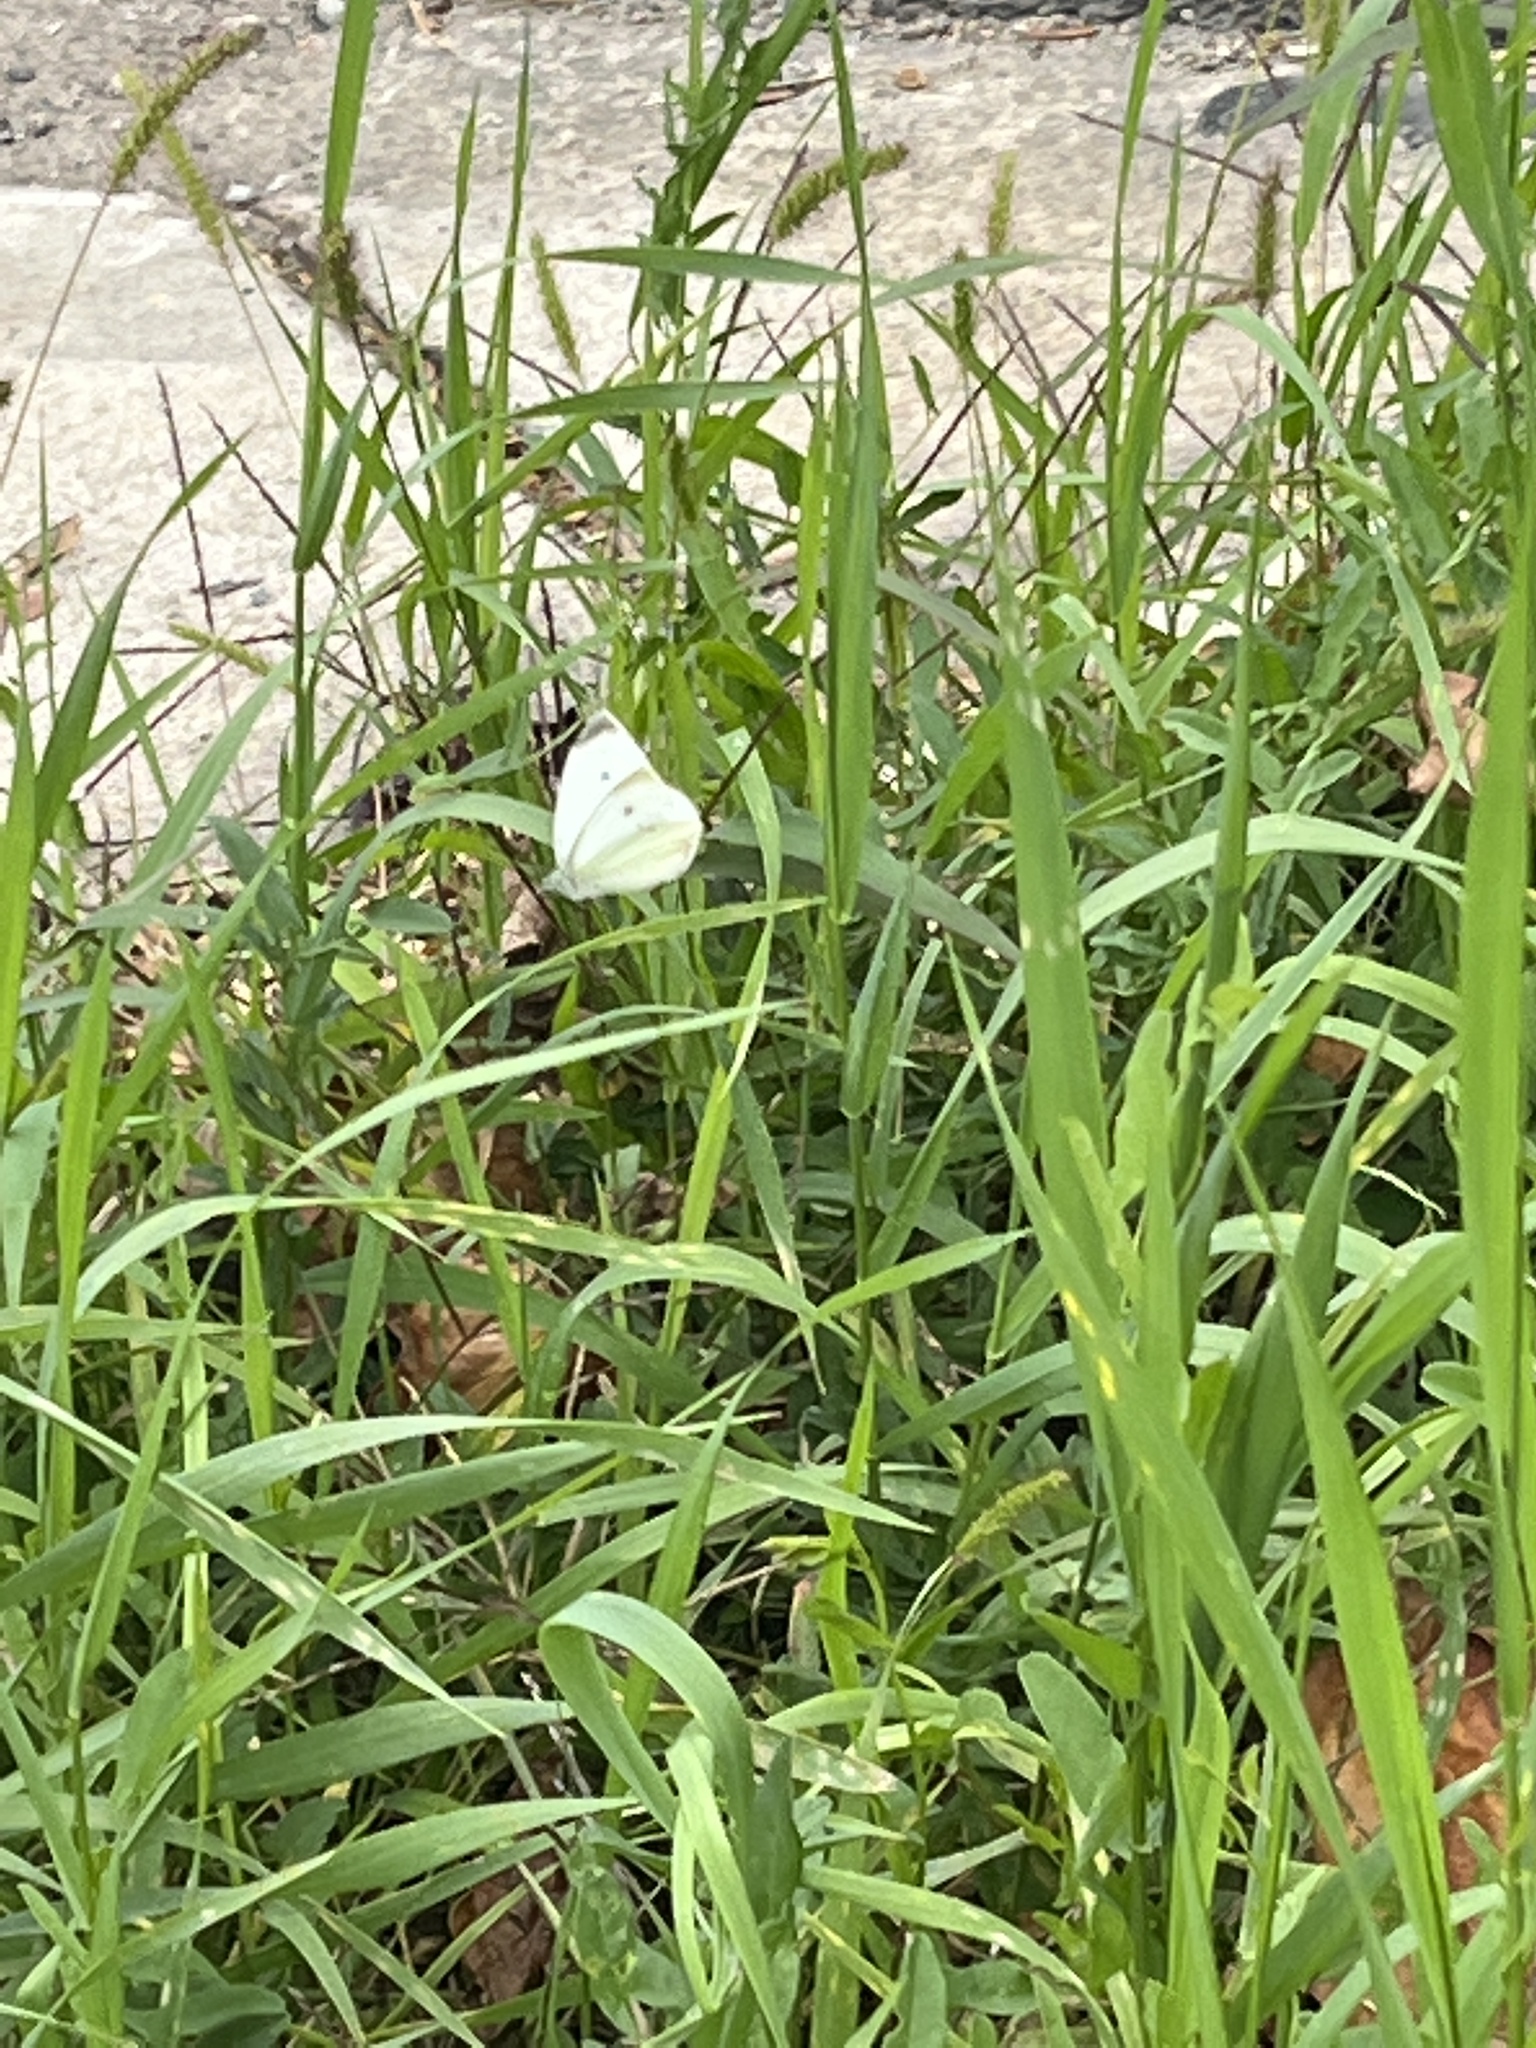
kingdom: Animalia
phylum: Arthropoda
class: Insecta
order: Lepidoptera
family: Pieridae
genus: Pieris
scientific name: Pieris rapae
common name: Small white
